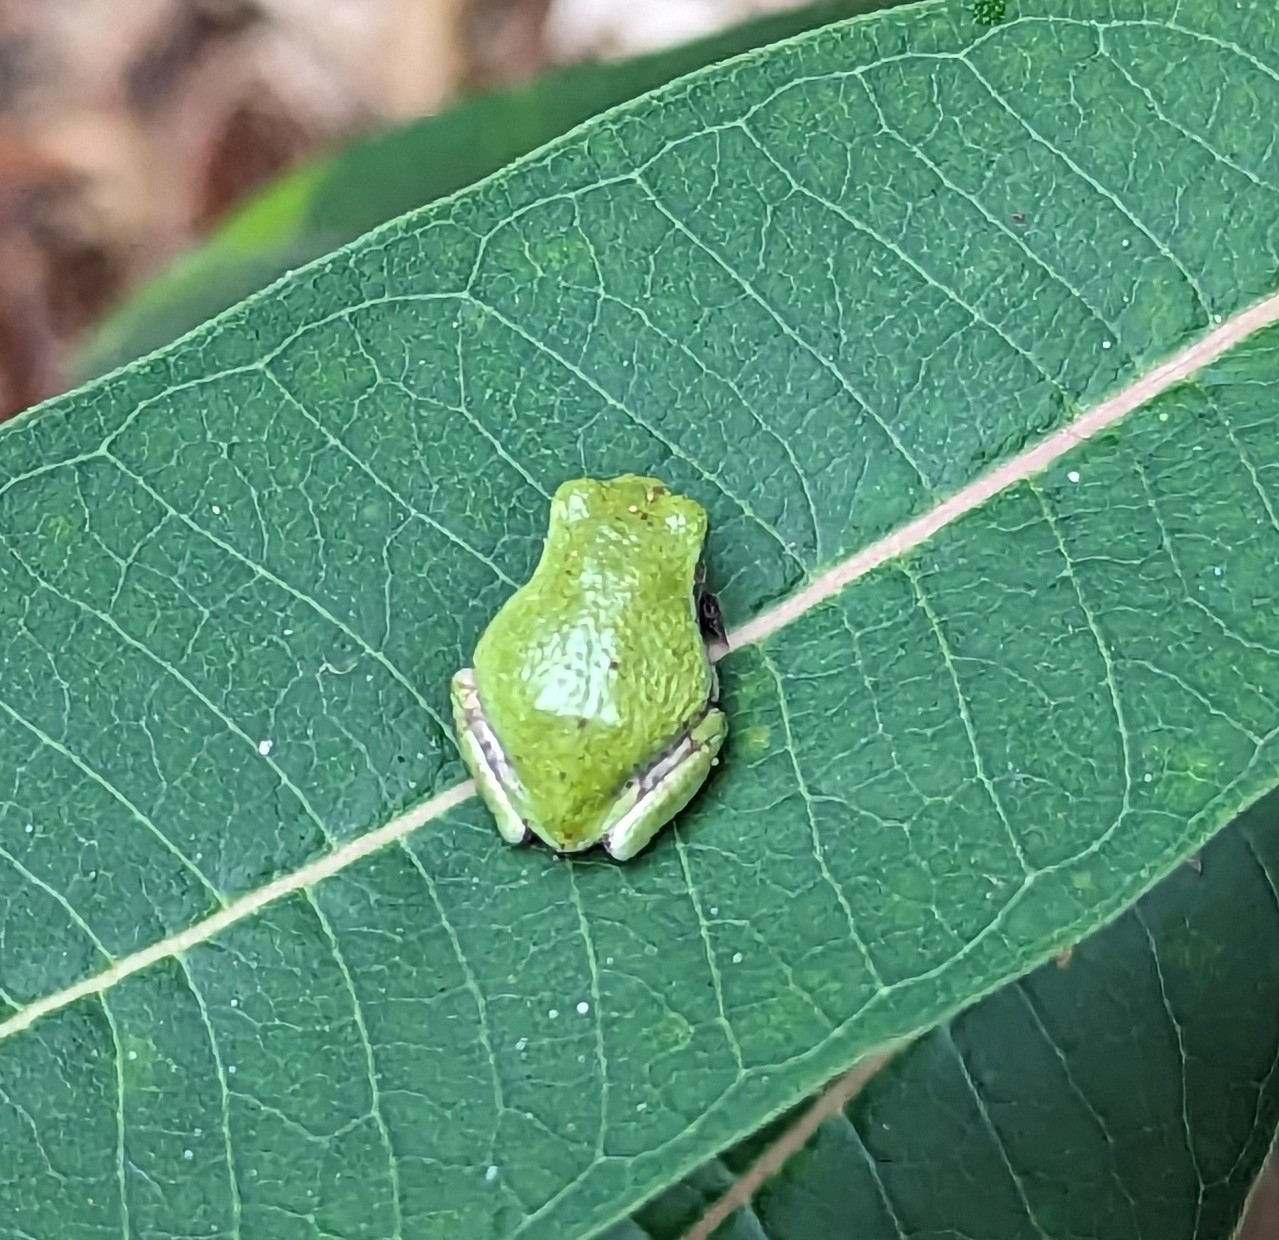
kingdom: Animalia
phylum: Chordata
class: Amphibia
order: Anura
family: Hylidae
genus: Hyla
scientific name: Hyla
